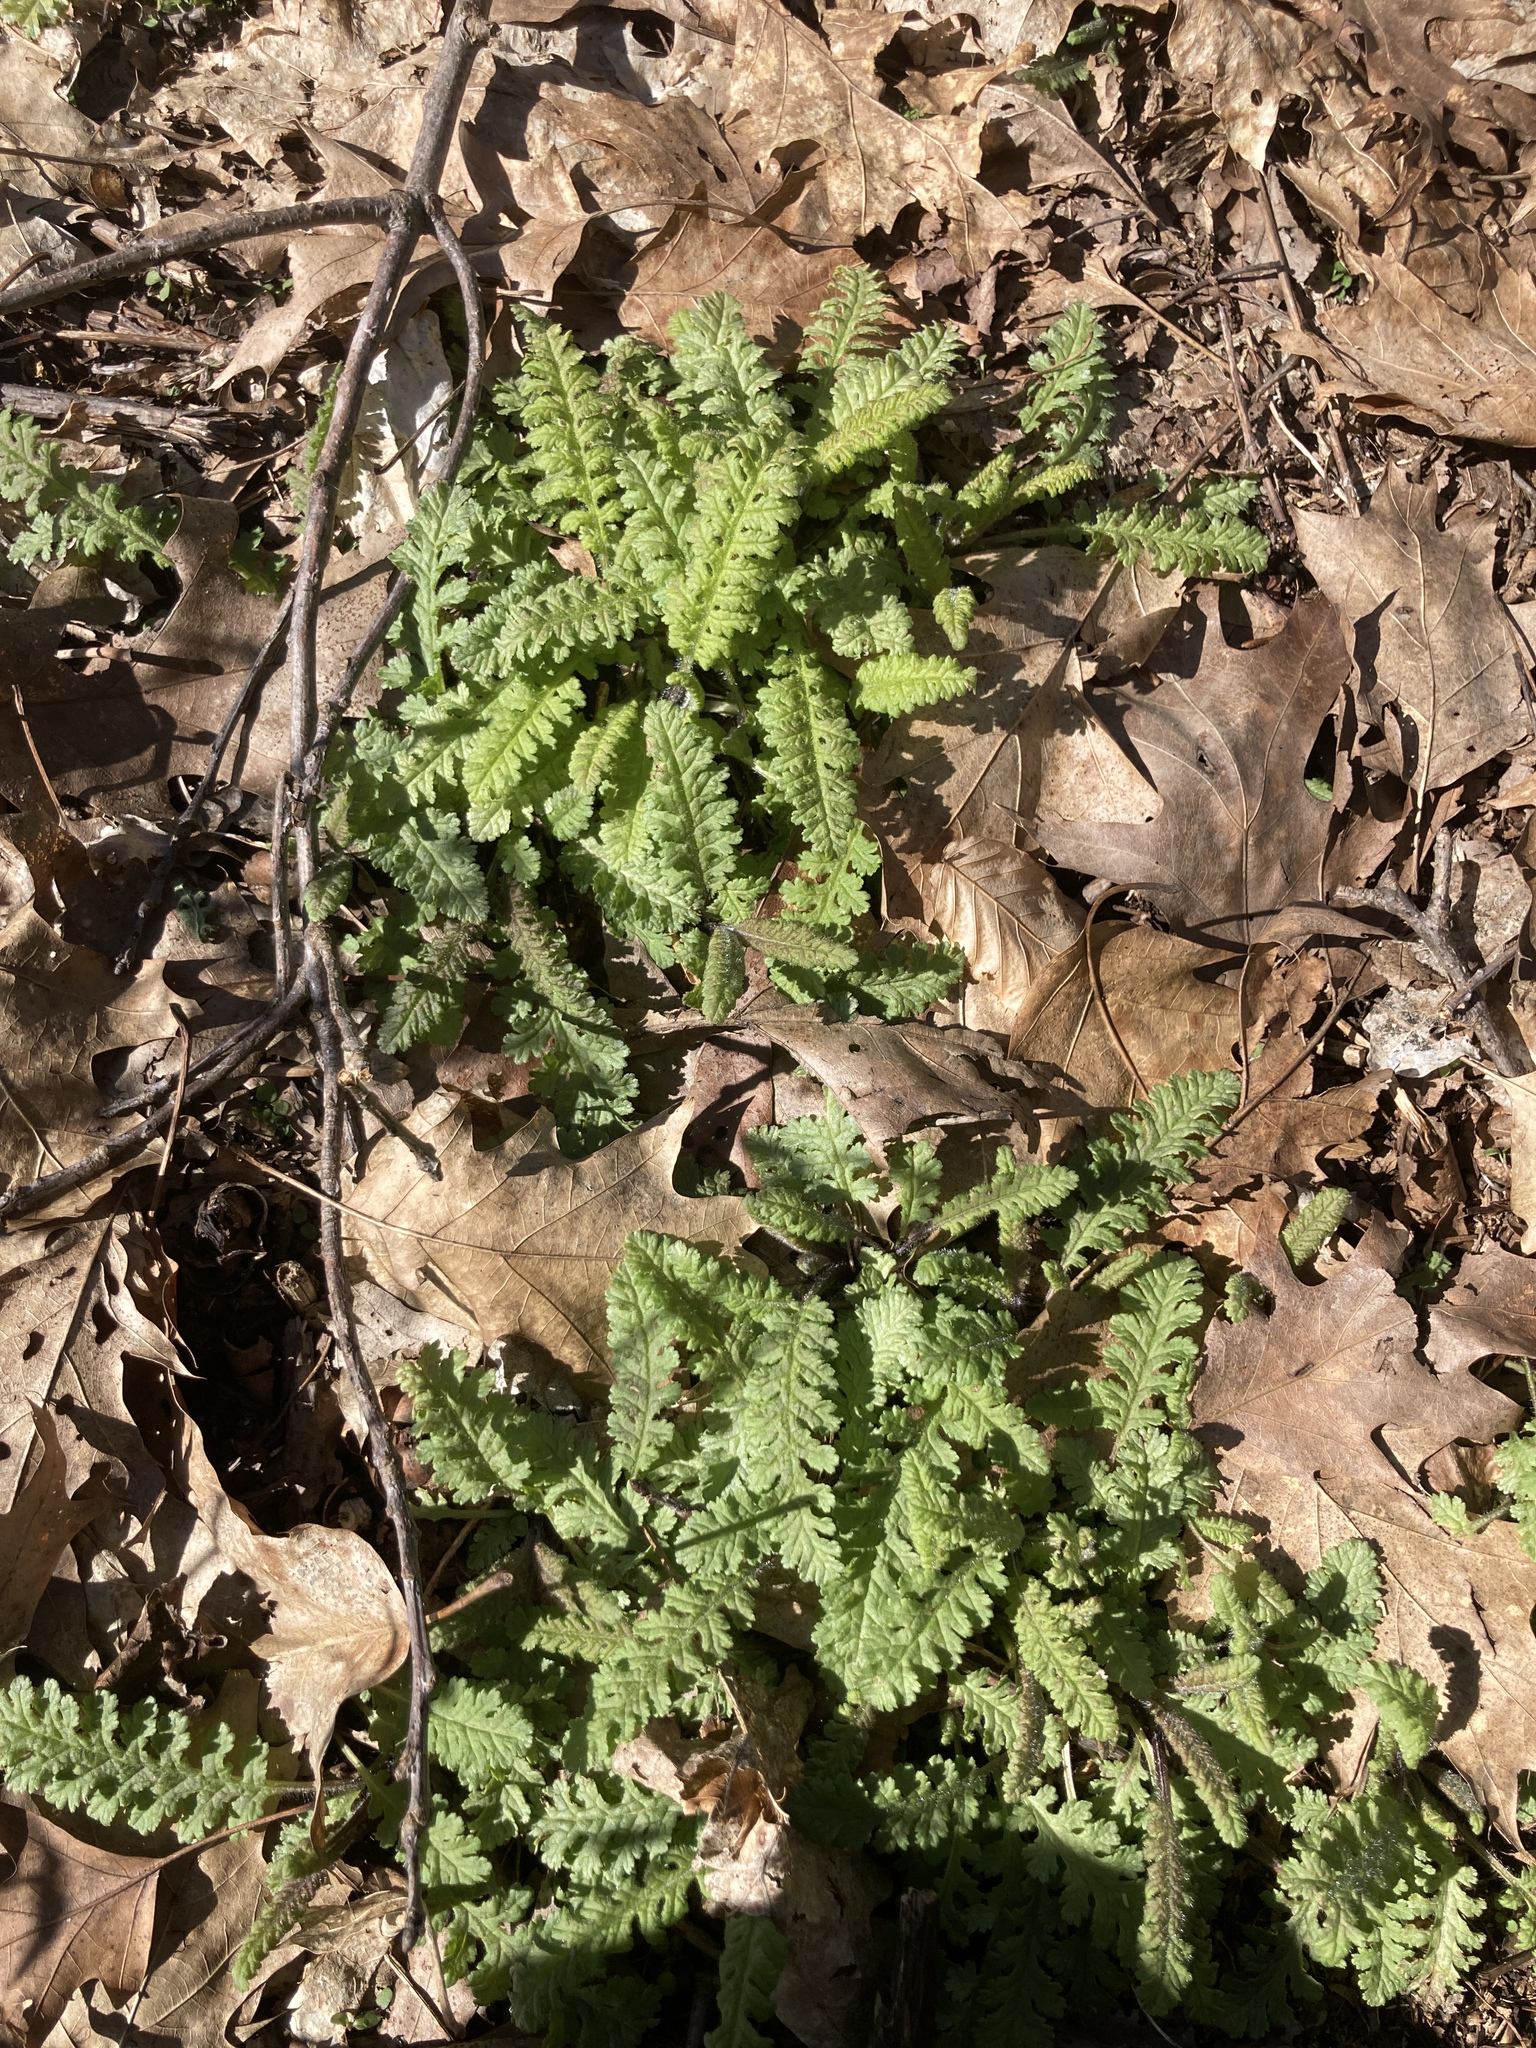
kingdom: Plantae
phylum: Tracheophyta
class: Magnoliopsida
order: Lamiales
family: Orobanchaceae
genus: Pedicularis
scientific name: Pedicularis canadensis
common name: Early lousewort
